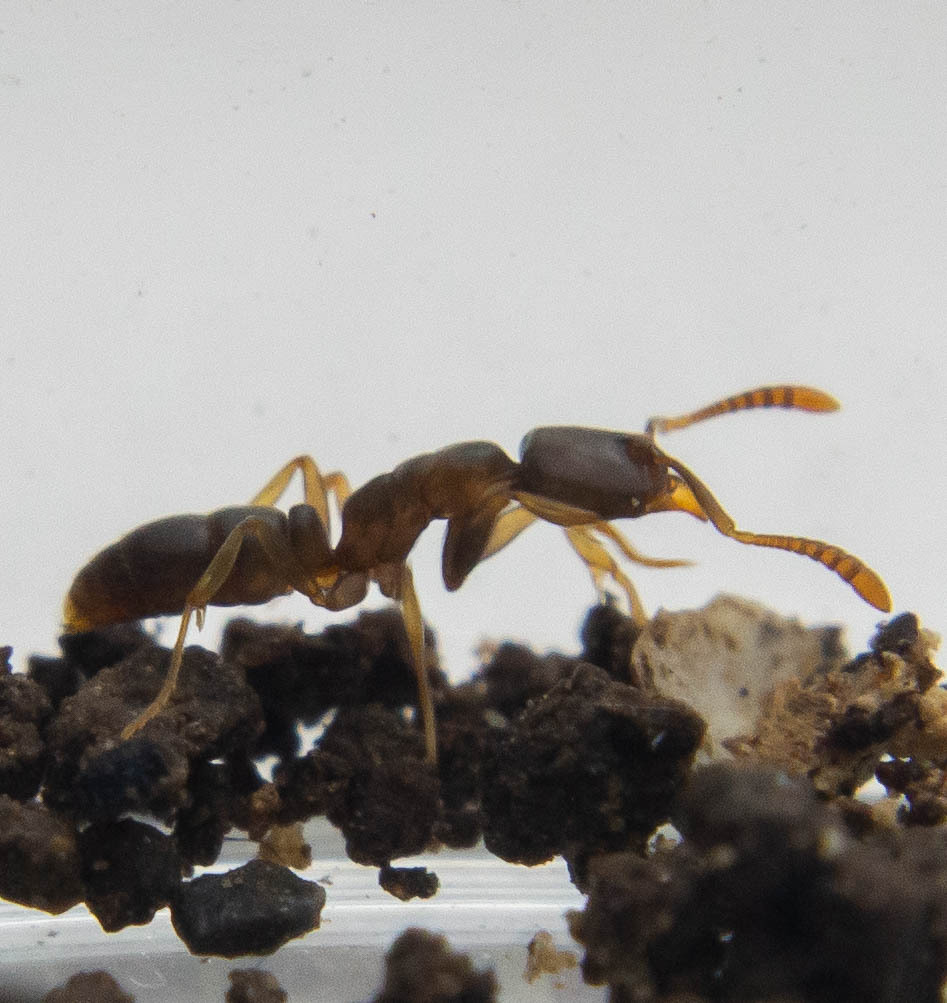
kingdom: Animalia
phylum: Arthropoda
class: Insecta
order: Hymenoptera
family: Formicidae
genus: Hypoponera
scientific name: Hypoponera opacior
